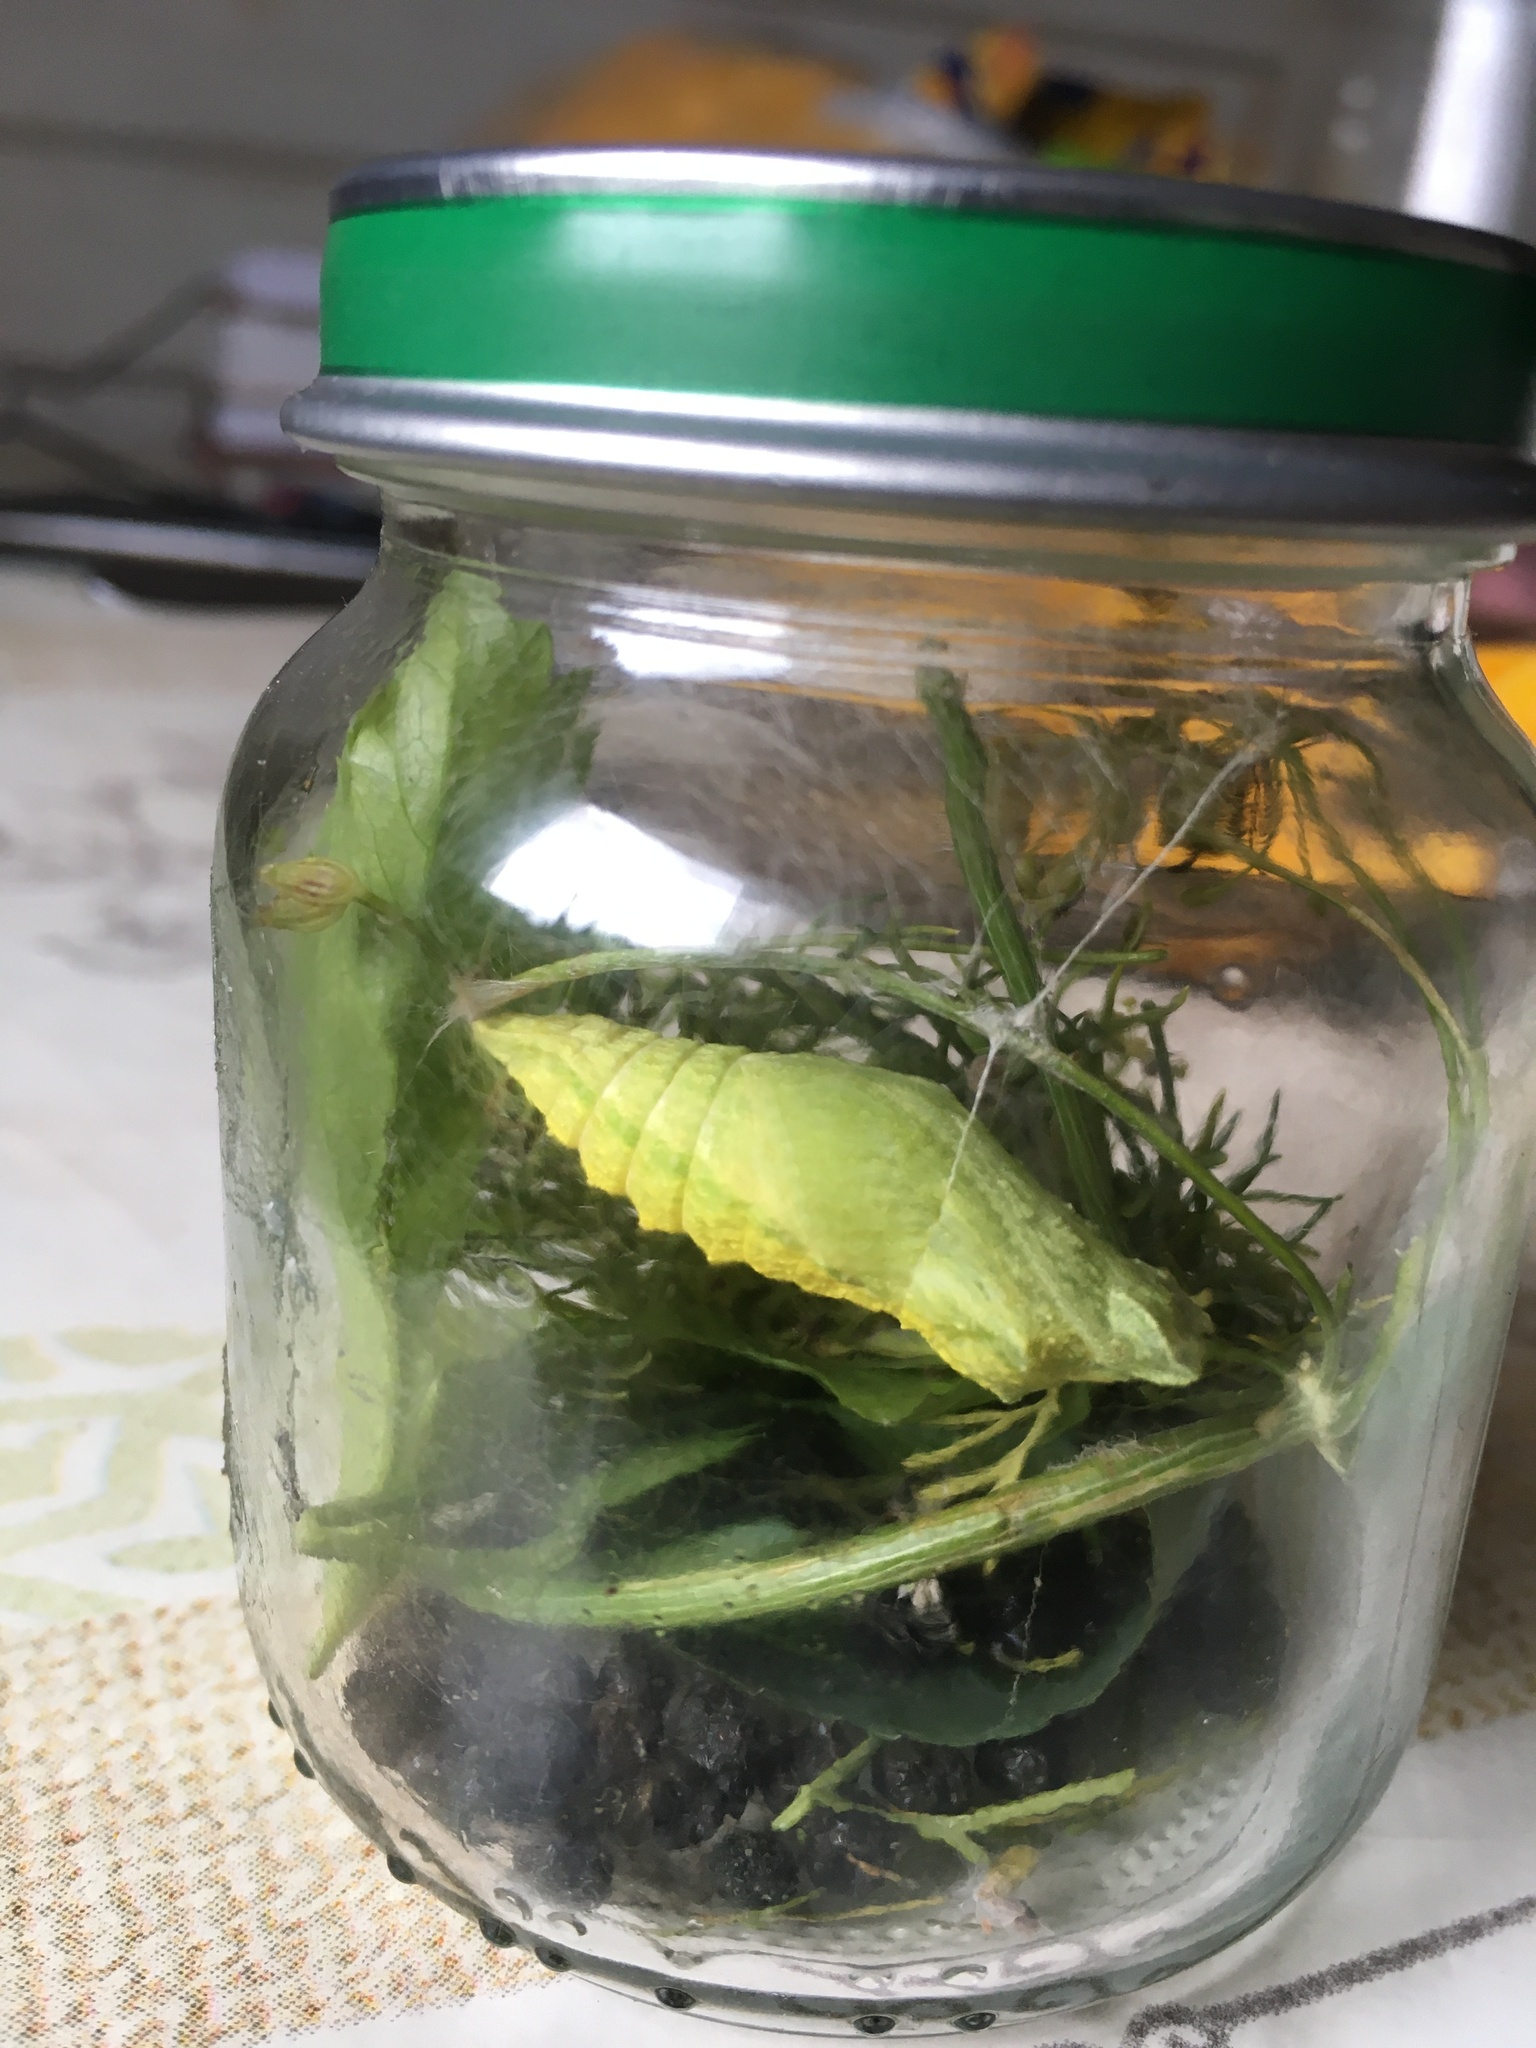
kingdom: Animalia
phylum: Arthropoda
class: Insecta
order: Lepidoptera
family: Papilionidae
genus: Papilio
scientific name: Papilio machaon
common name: Swallowtail
